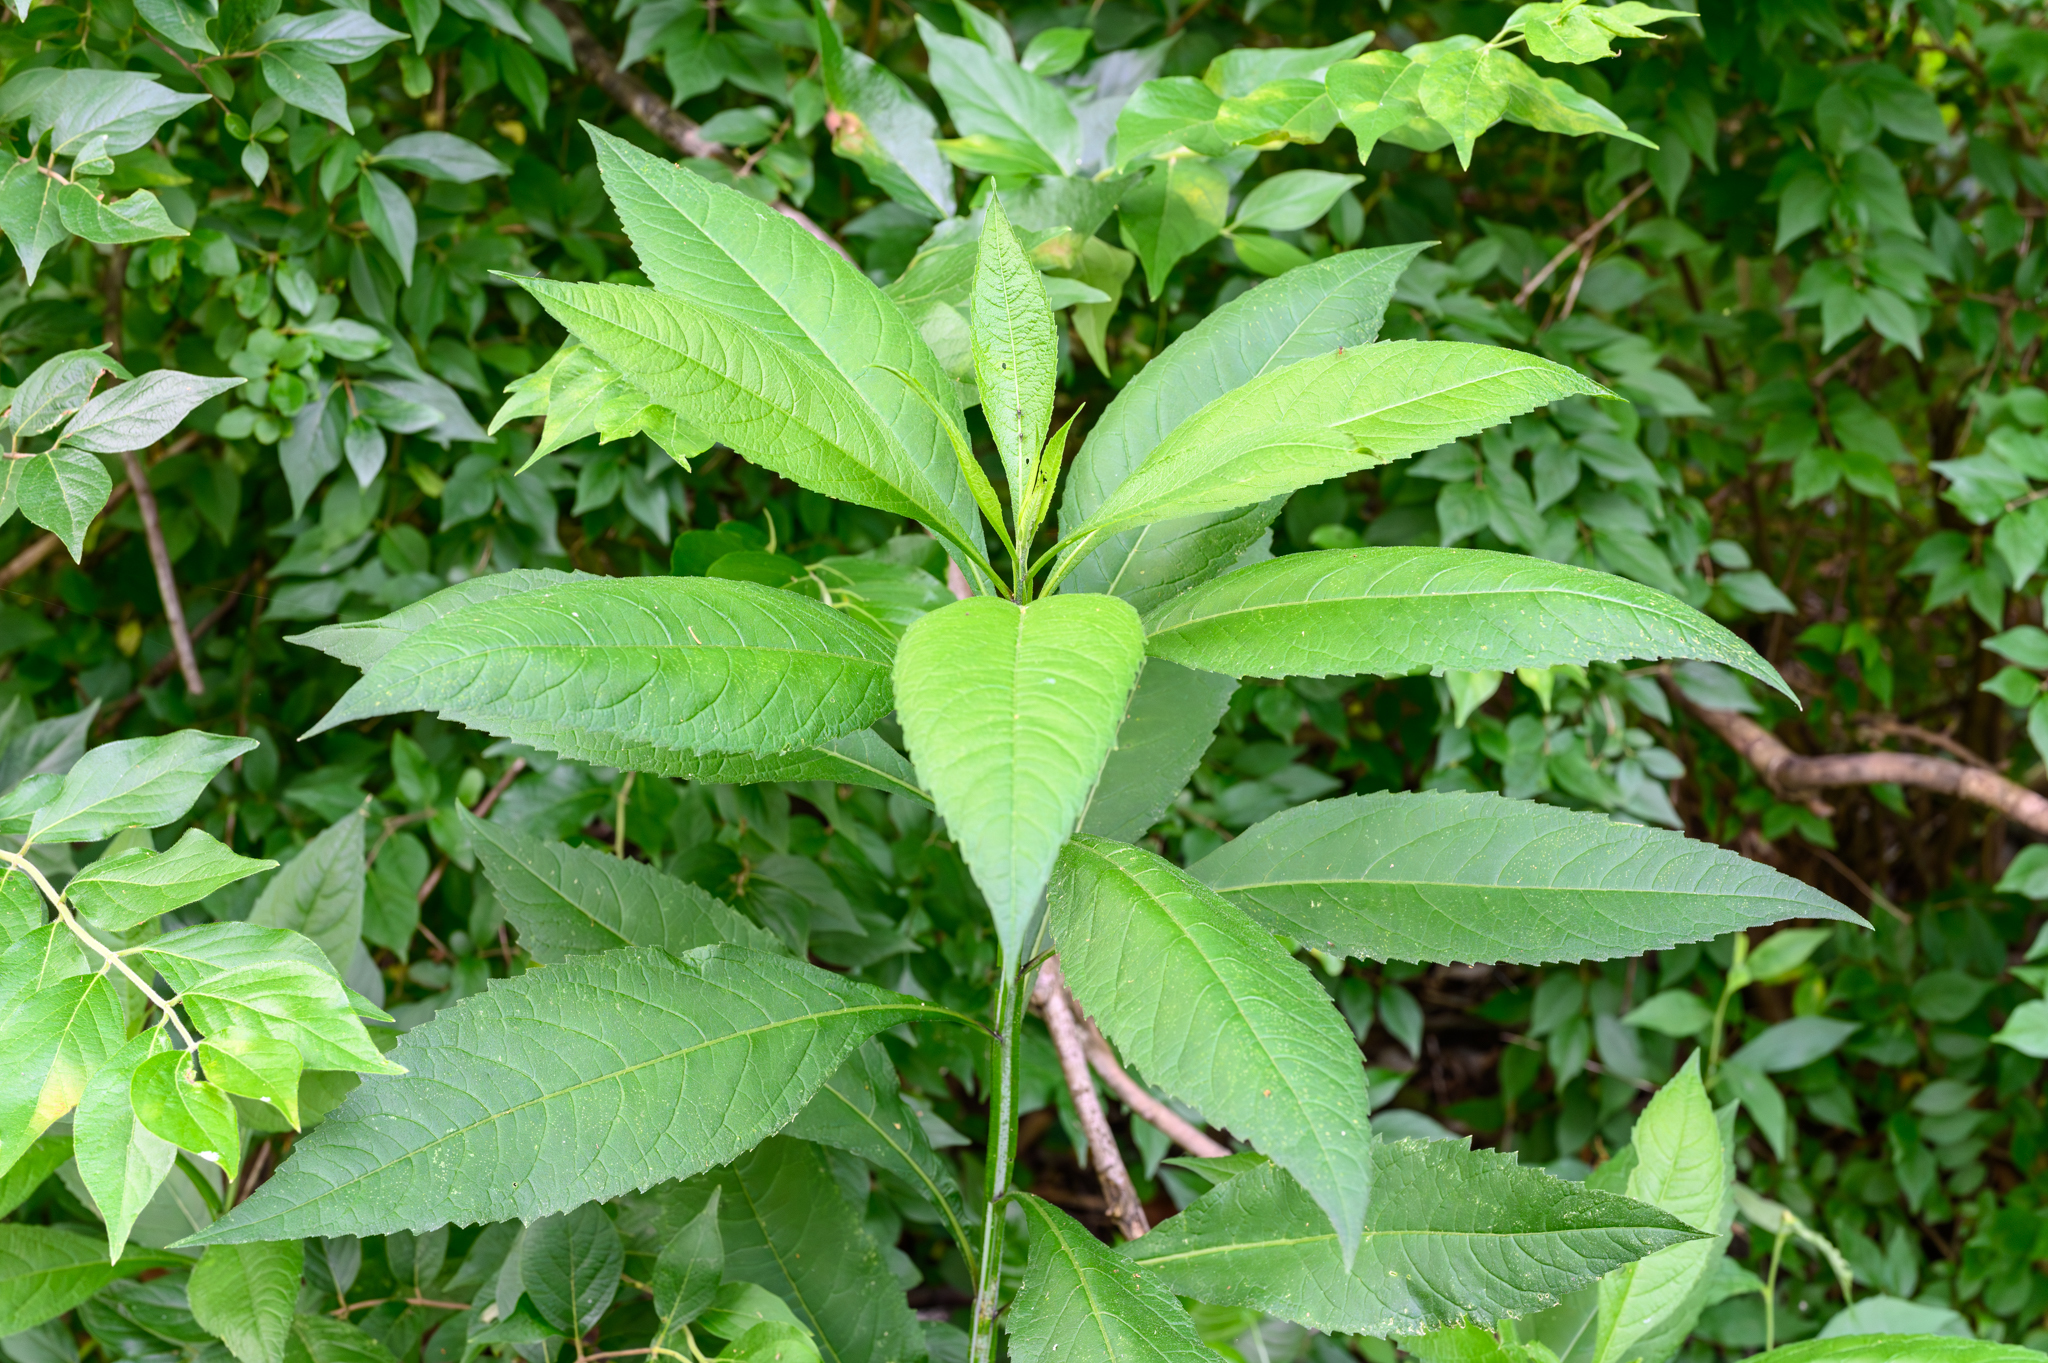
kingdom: Plantae
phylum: Tracheophyta
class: Magnoliopsida
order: Asterales
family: Asteraceae
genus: Verbesina
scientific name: Verbesina alternifolia
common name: Wingstem
